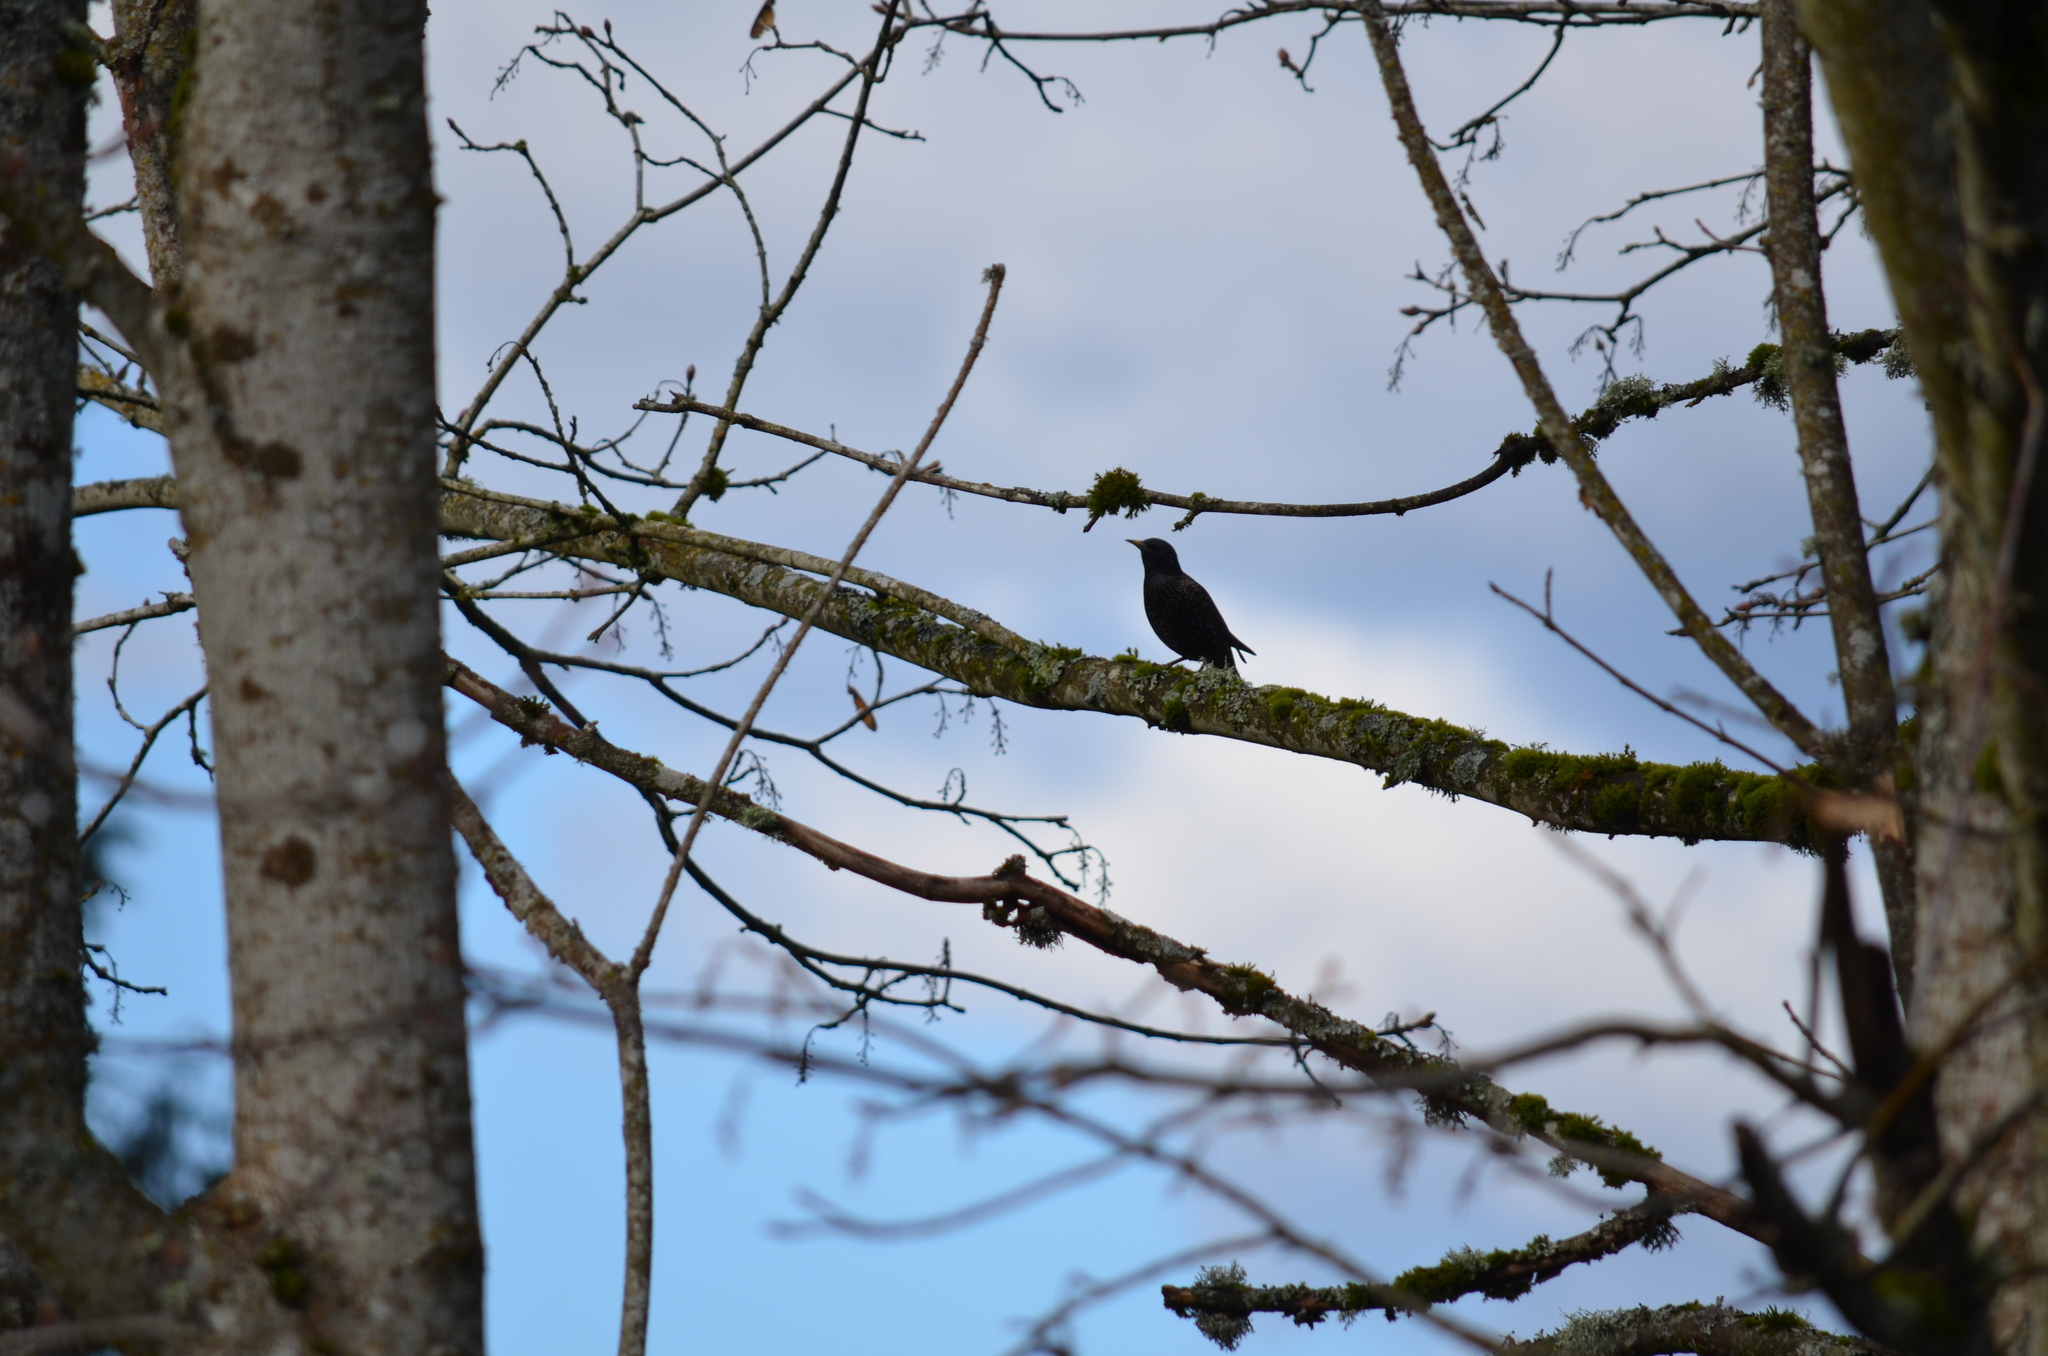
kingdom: Animalia
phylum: Chordata
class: Aves
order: Passeriformes
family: Sturnidae
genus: Sturnus
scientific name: Sturnus vulgaris
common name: Common starling
